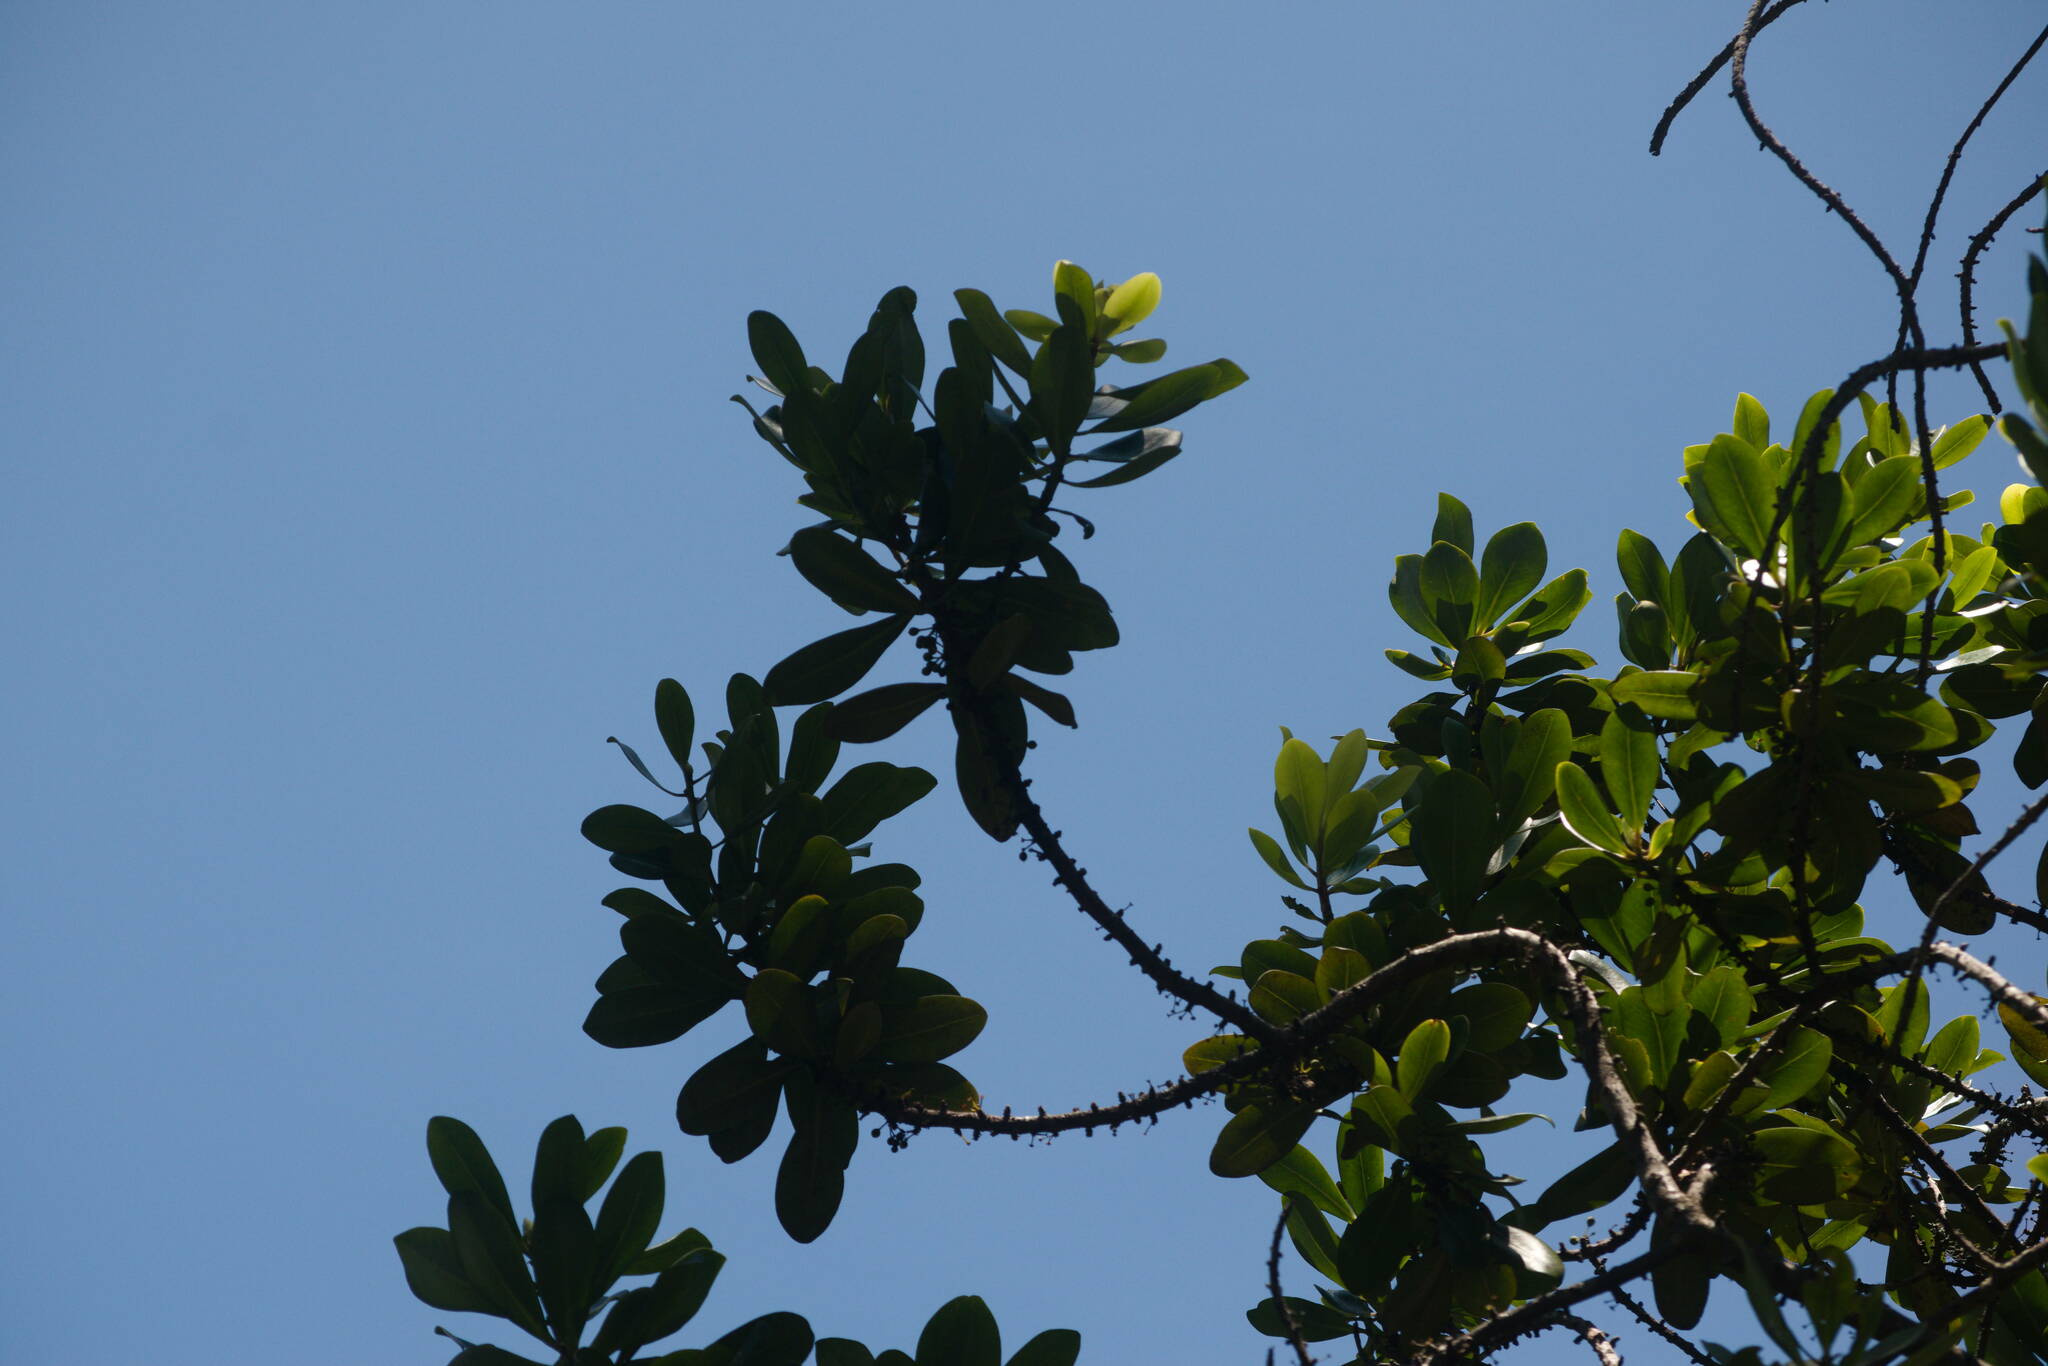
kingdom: Plantae
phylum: Tracheophyta
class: Magnoliopsida
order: Ericales
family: Primulaceae
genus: Myrsine
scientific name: Myrsine lessertiana
